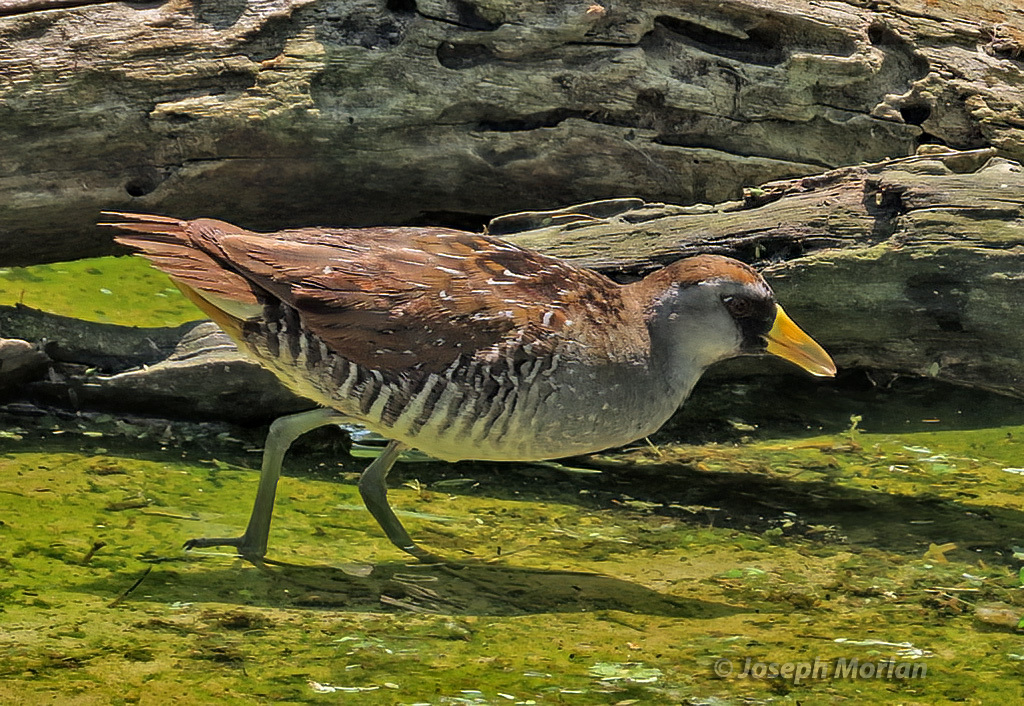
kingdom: Animalia
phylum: Chordata
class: Aves
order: Gruiformes
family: Rallidae
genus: Porzana
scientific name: Porzana carolina
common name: Sora
